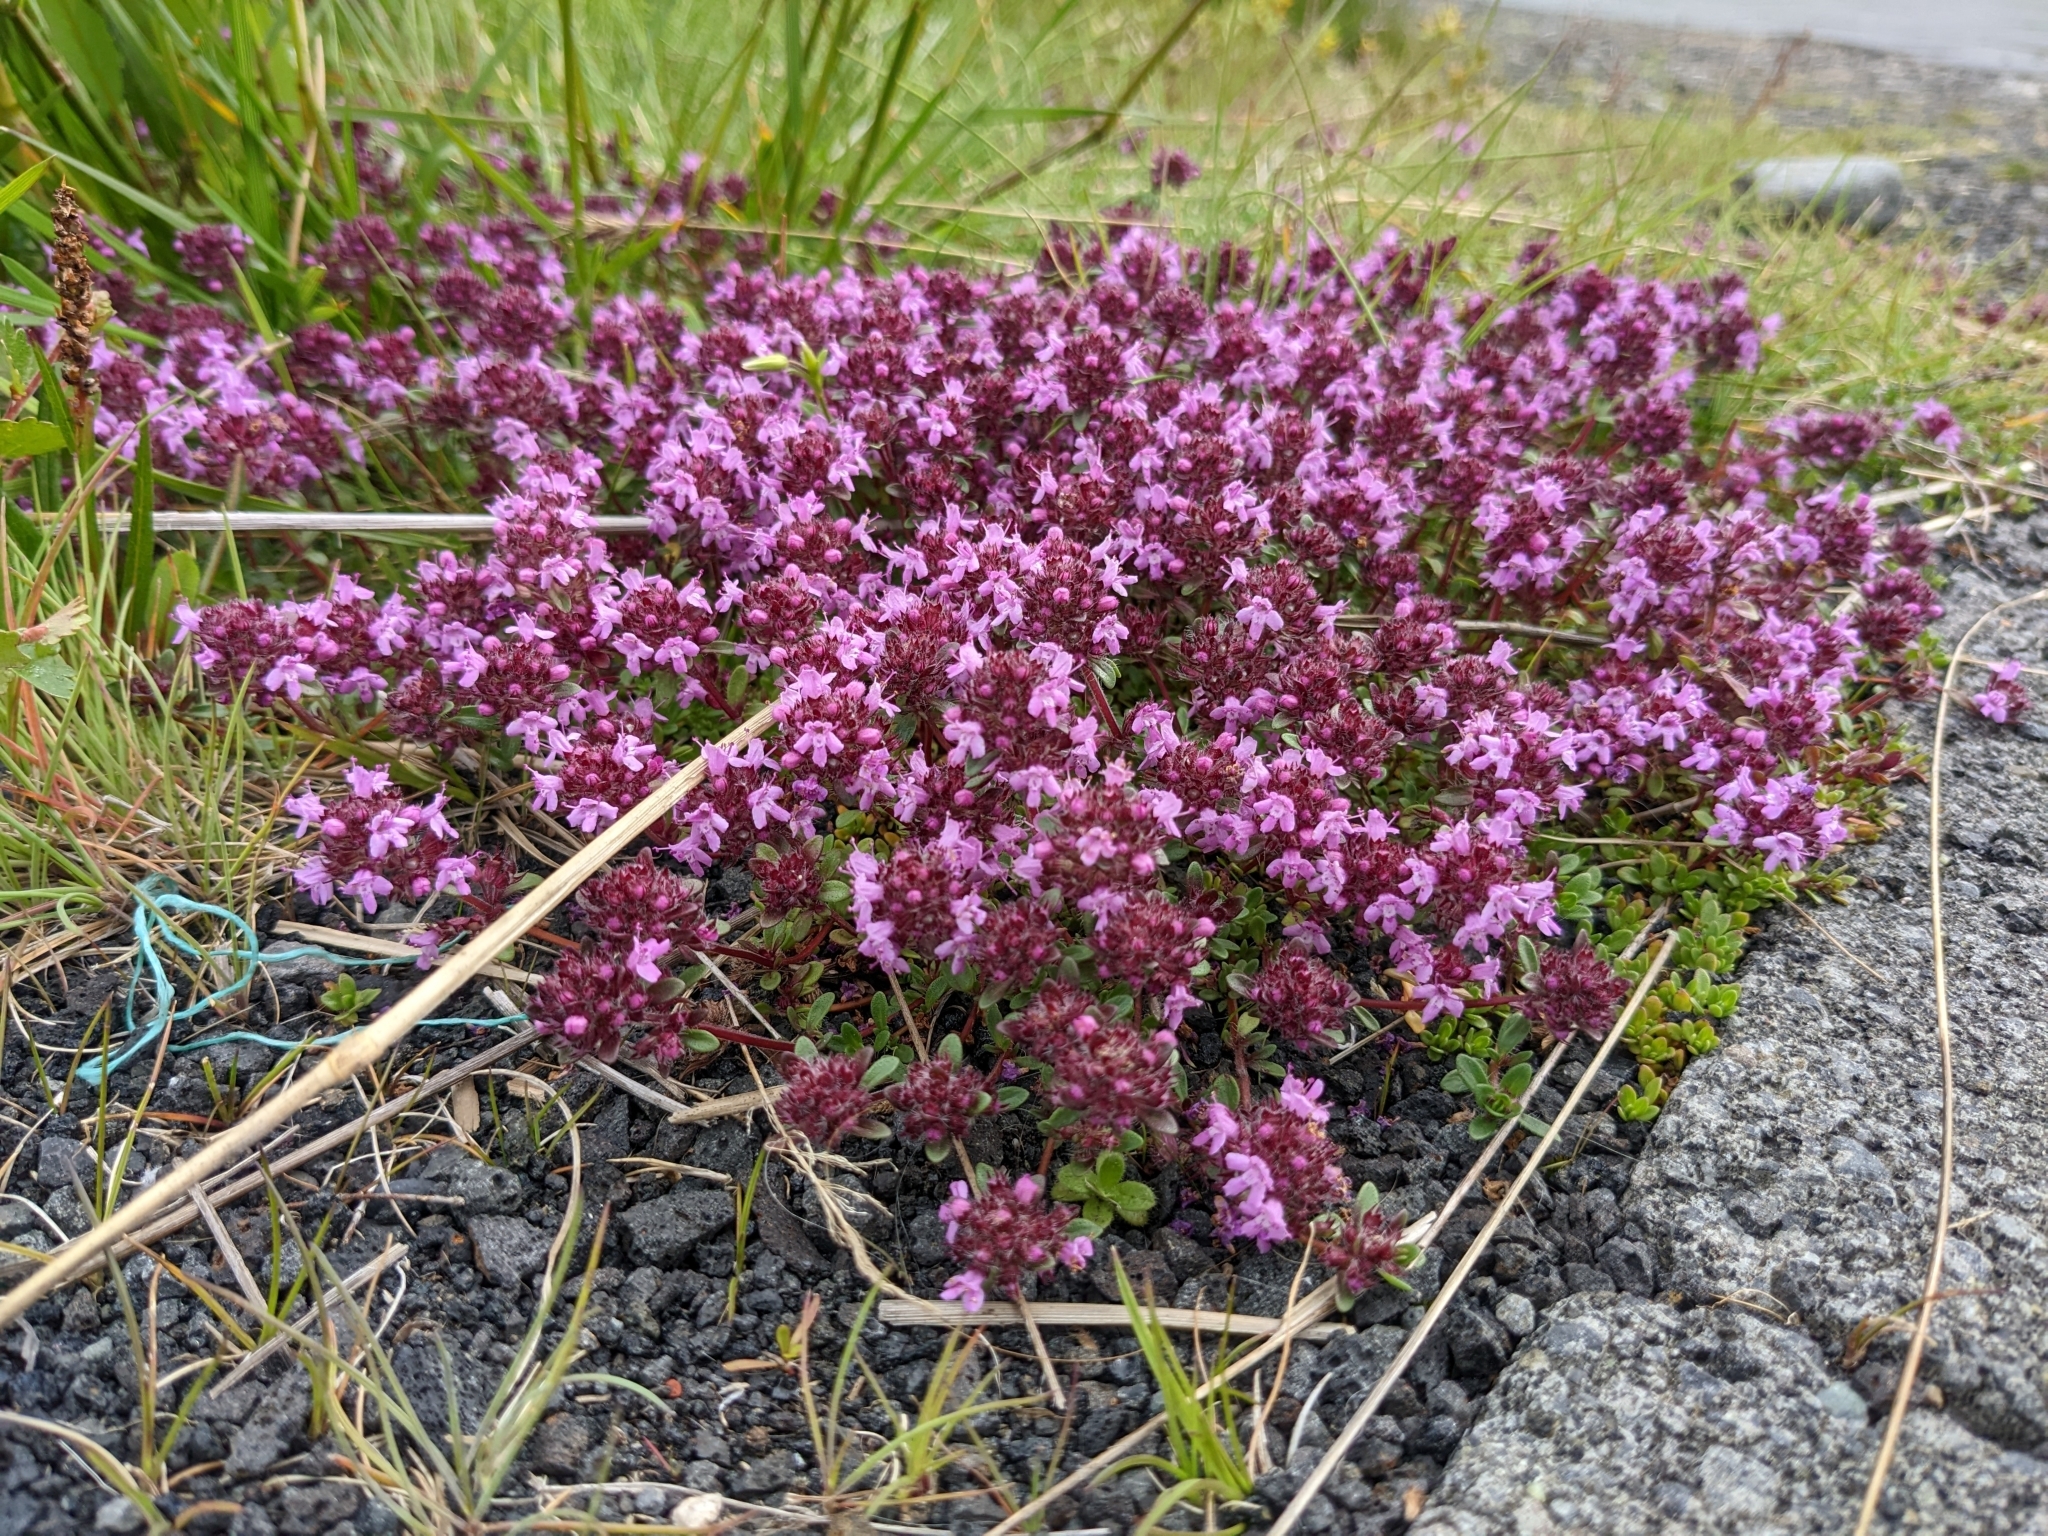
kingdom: Plantae
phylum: Tracheophyta
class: Magnoliopsida
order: Lamiales
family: Lamiaceae
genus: Thymus
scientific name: Thymus praecox
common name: Wild thyme
